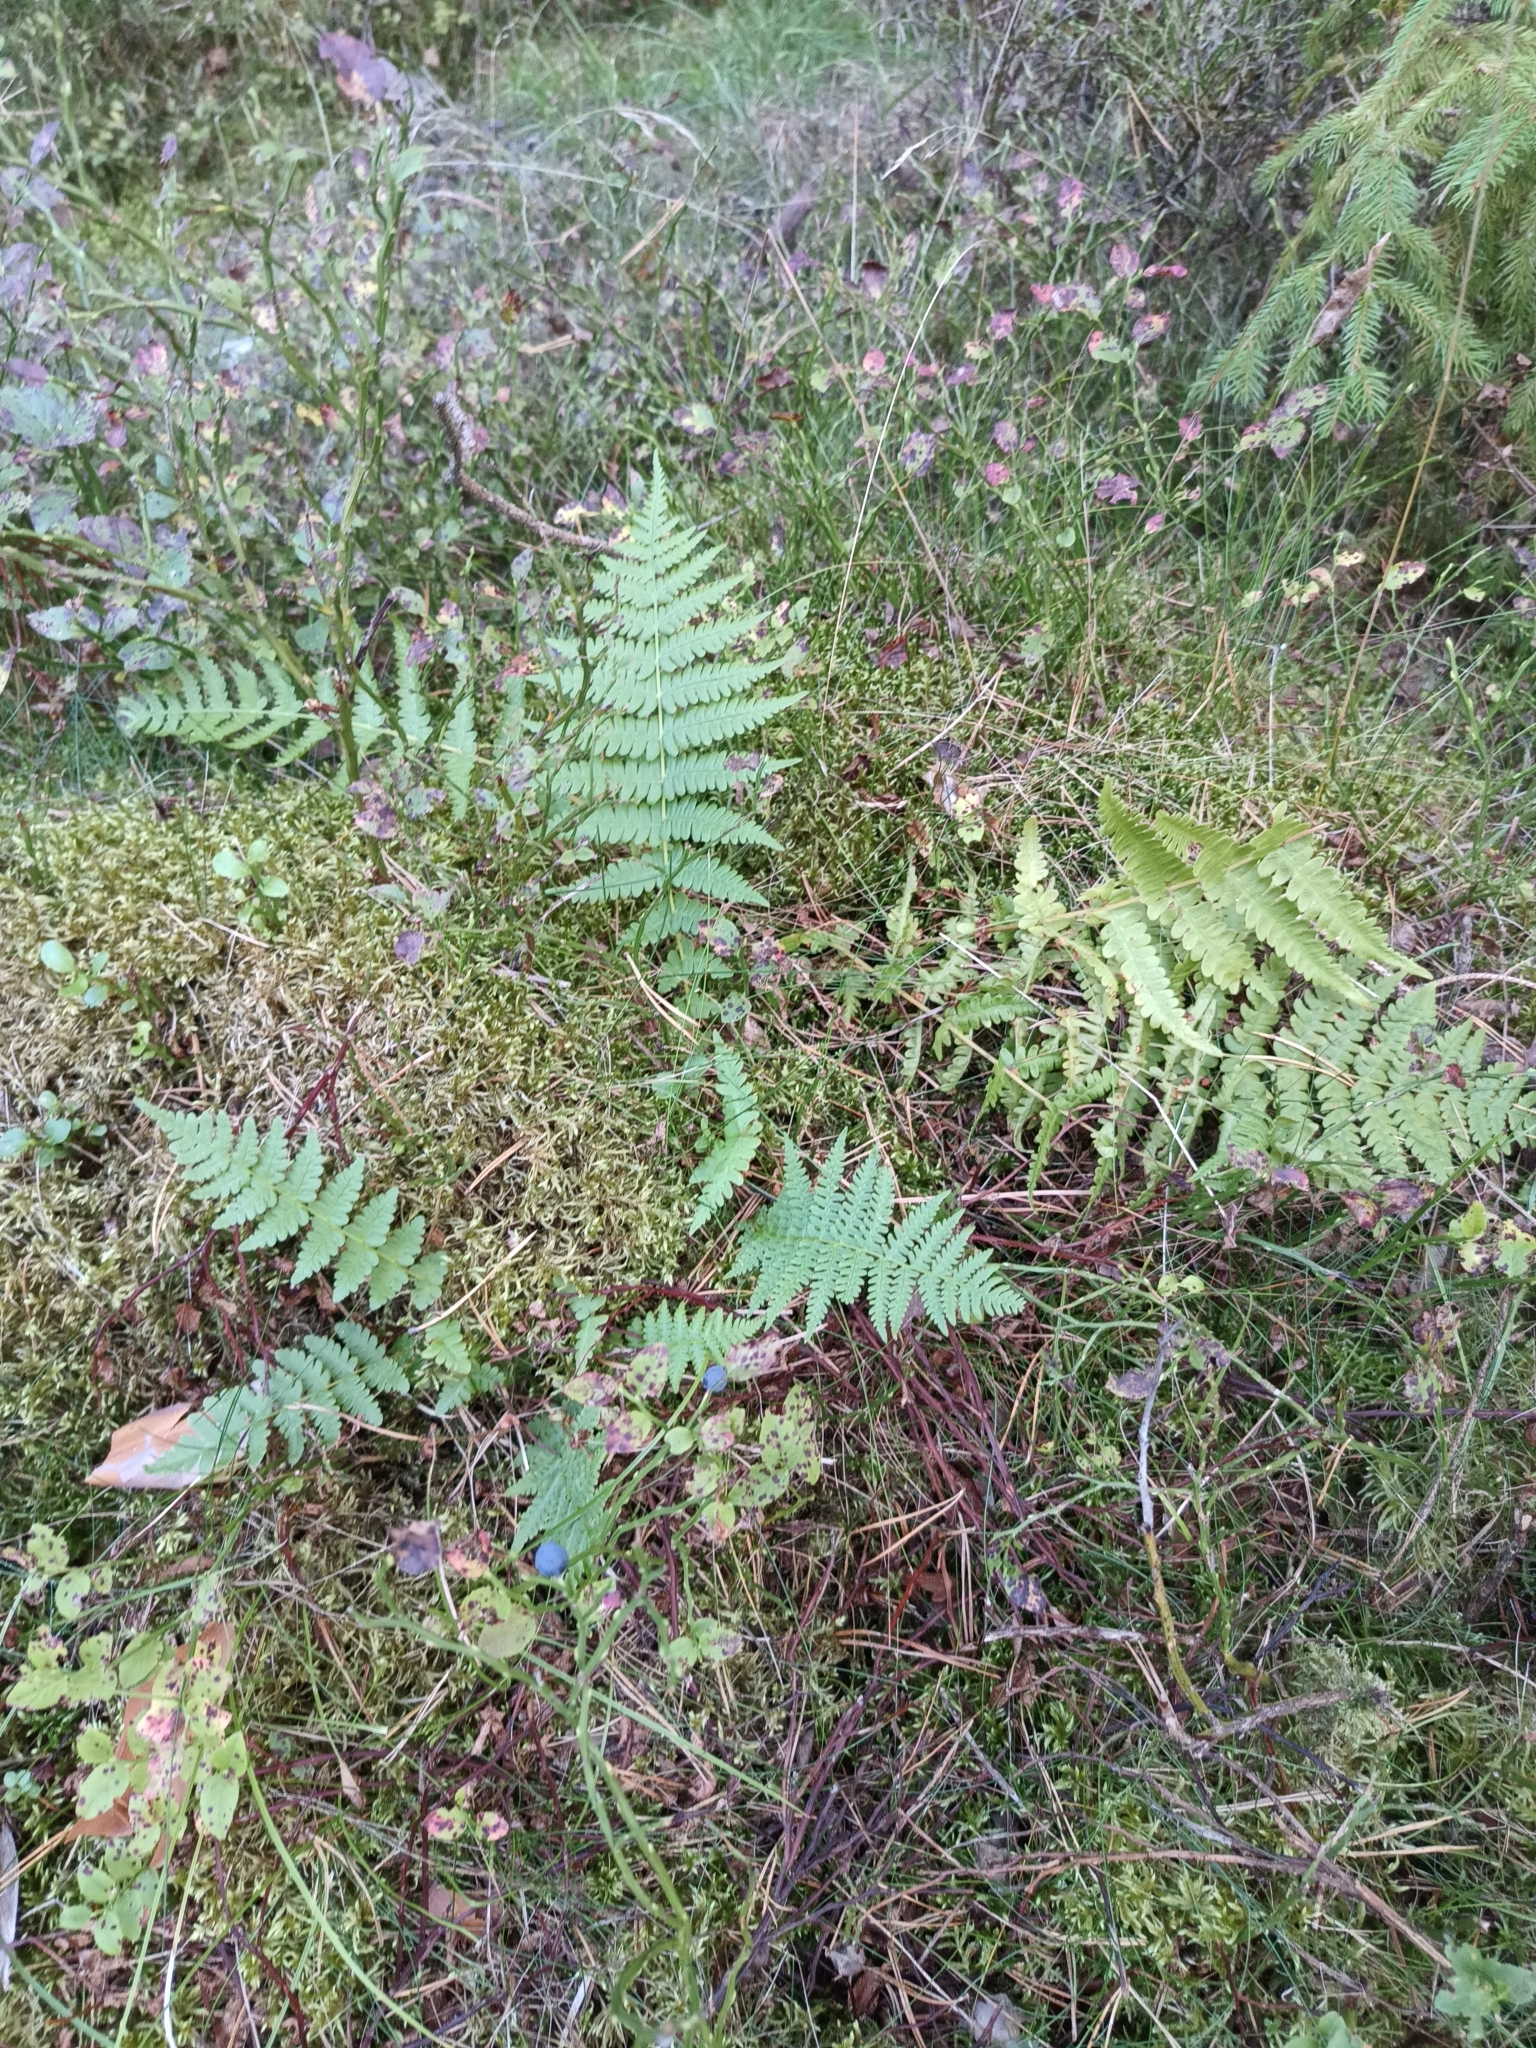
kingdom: Plantae
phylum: Tracheophyta
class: Polypodiopsida
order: Polypodiales
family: Thelypteridaceae
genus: Oreopteris
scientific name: Oreopteris limbosperma
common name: Lemon-scented fern
